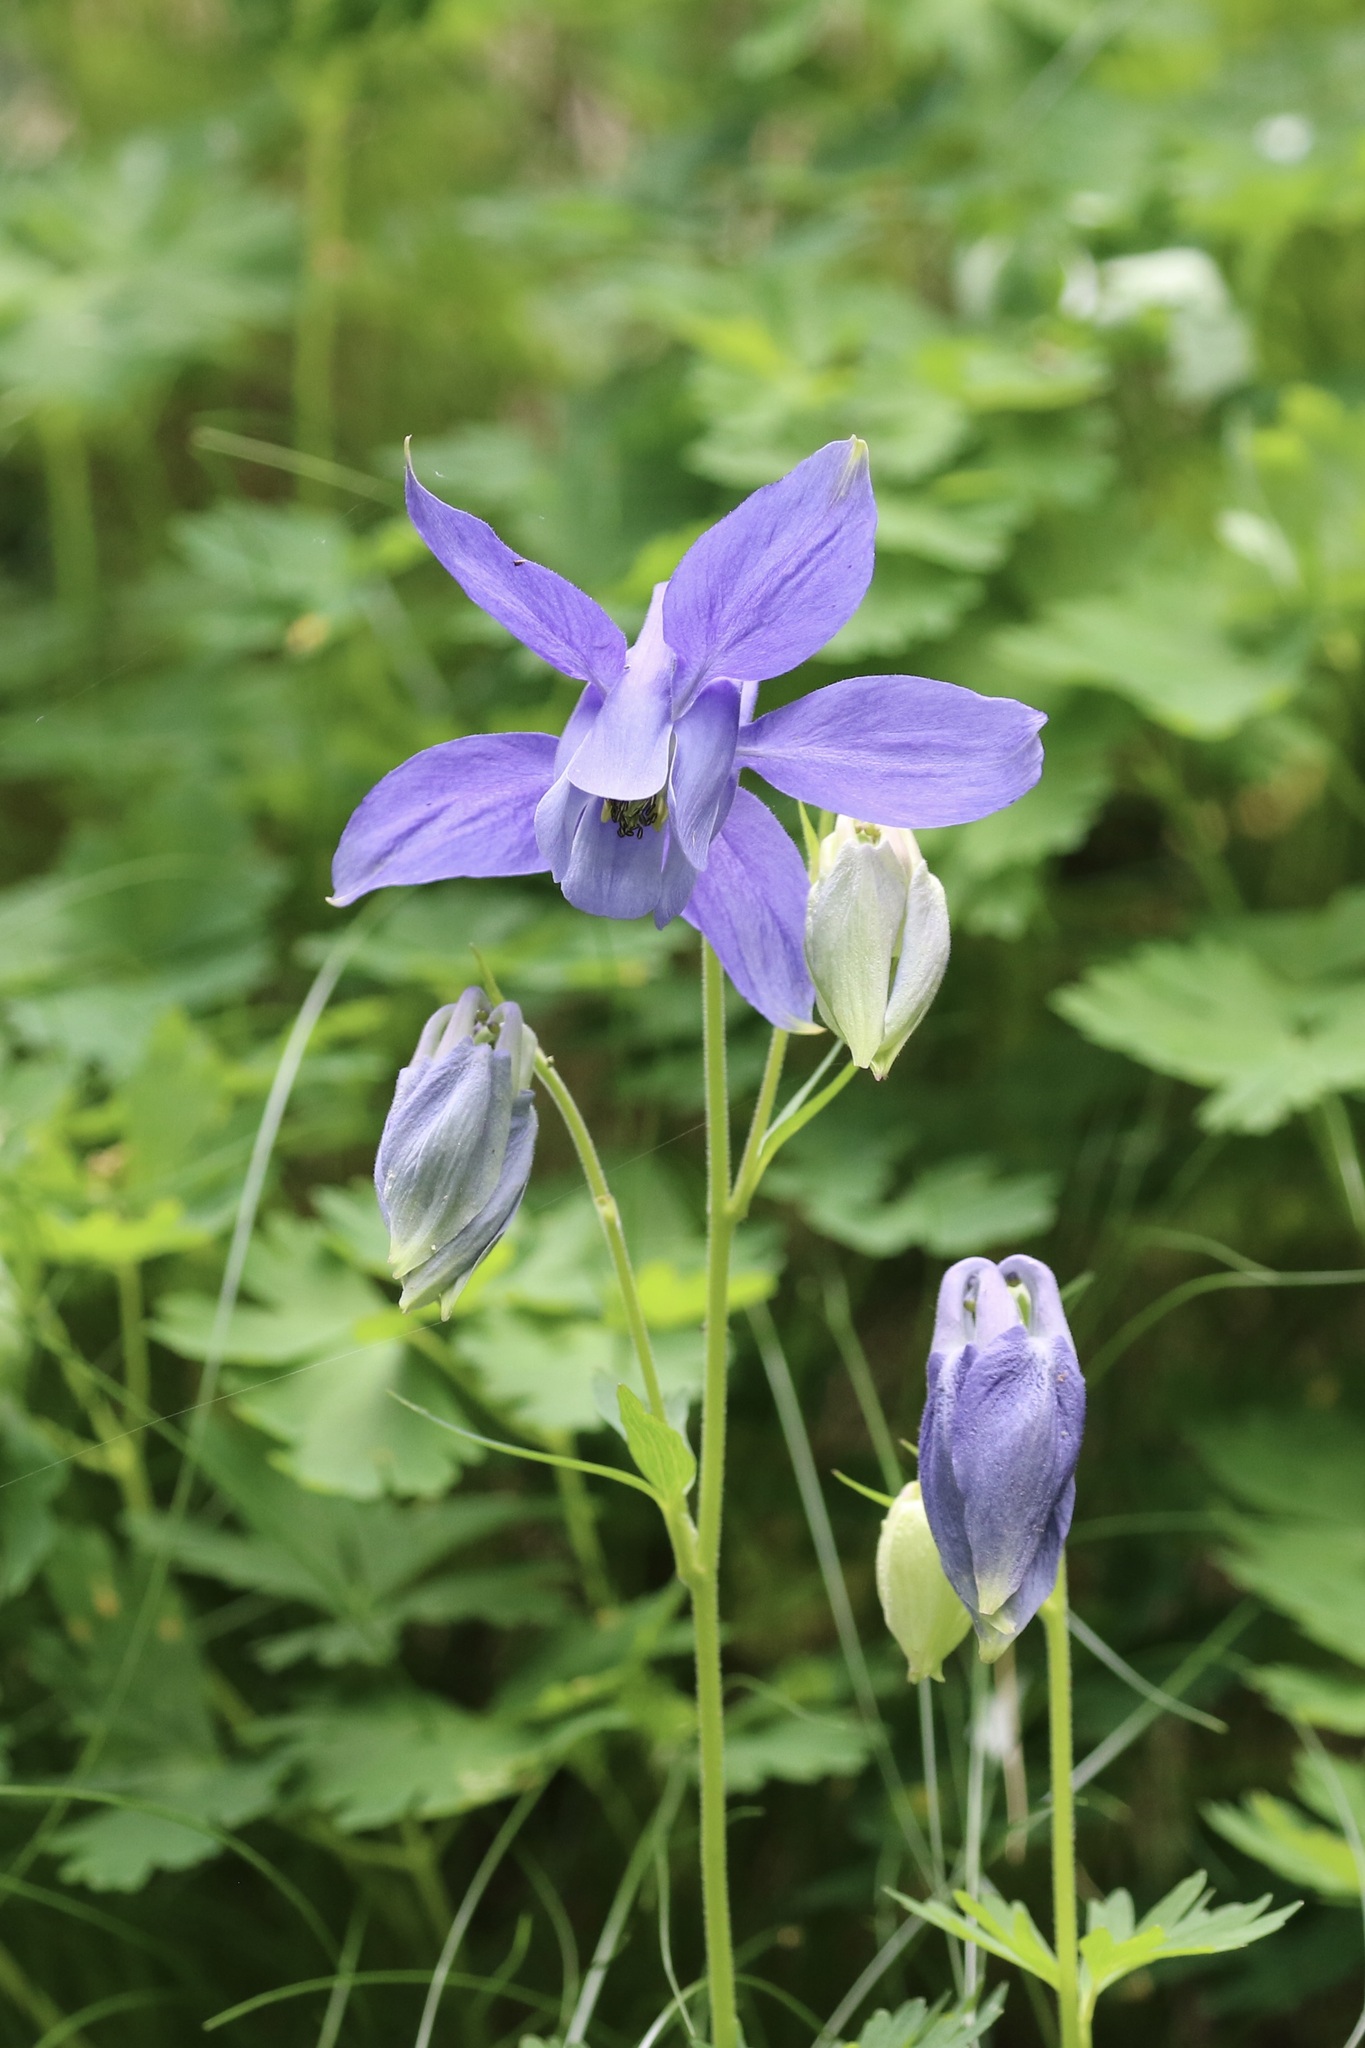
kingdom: Plantae
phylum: Tracheophyta
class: Magnoliopsida
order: Ranunculales
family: Ranunculaceae
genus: Aquilegia
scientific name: Aquilegia alpina
